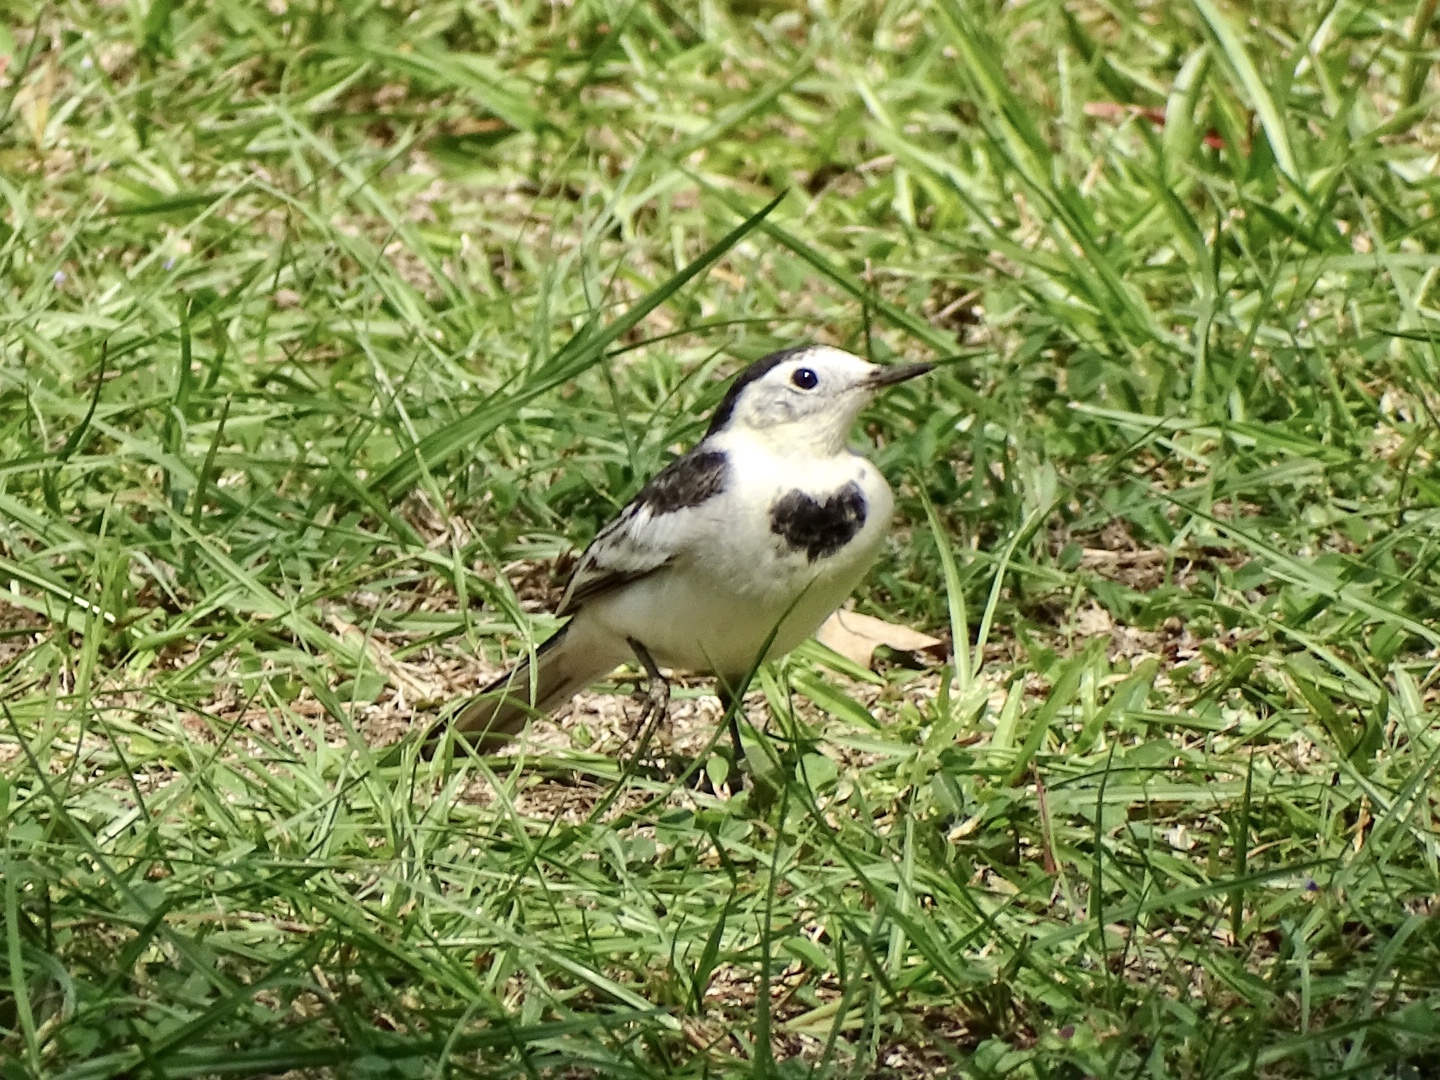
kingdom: Animalia
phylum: Chordata
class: Aves
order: Passeriformes
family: Motacillidae
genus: Motacilla
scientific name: Motacilla alba
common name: White wagtail
